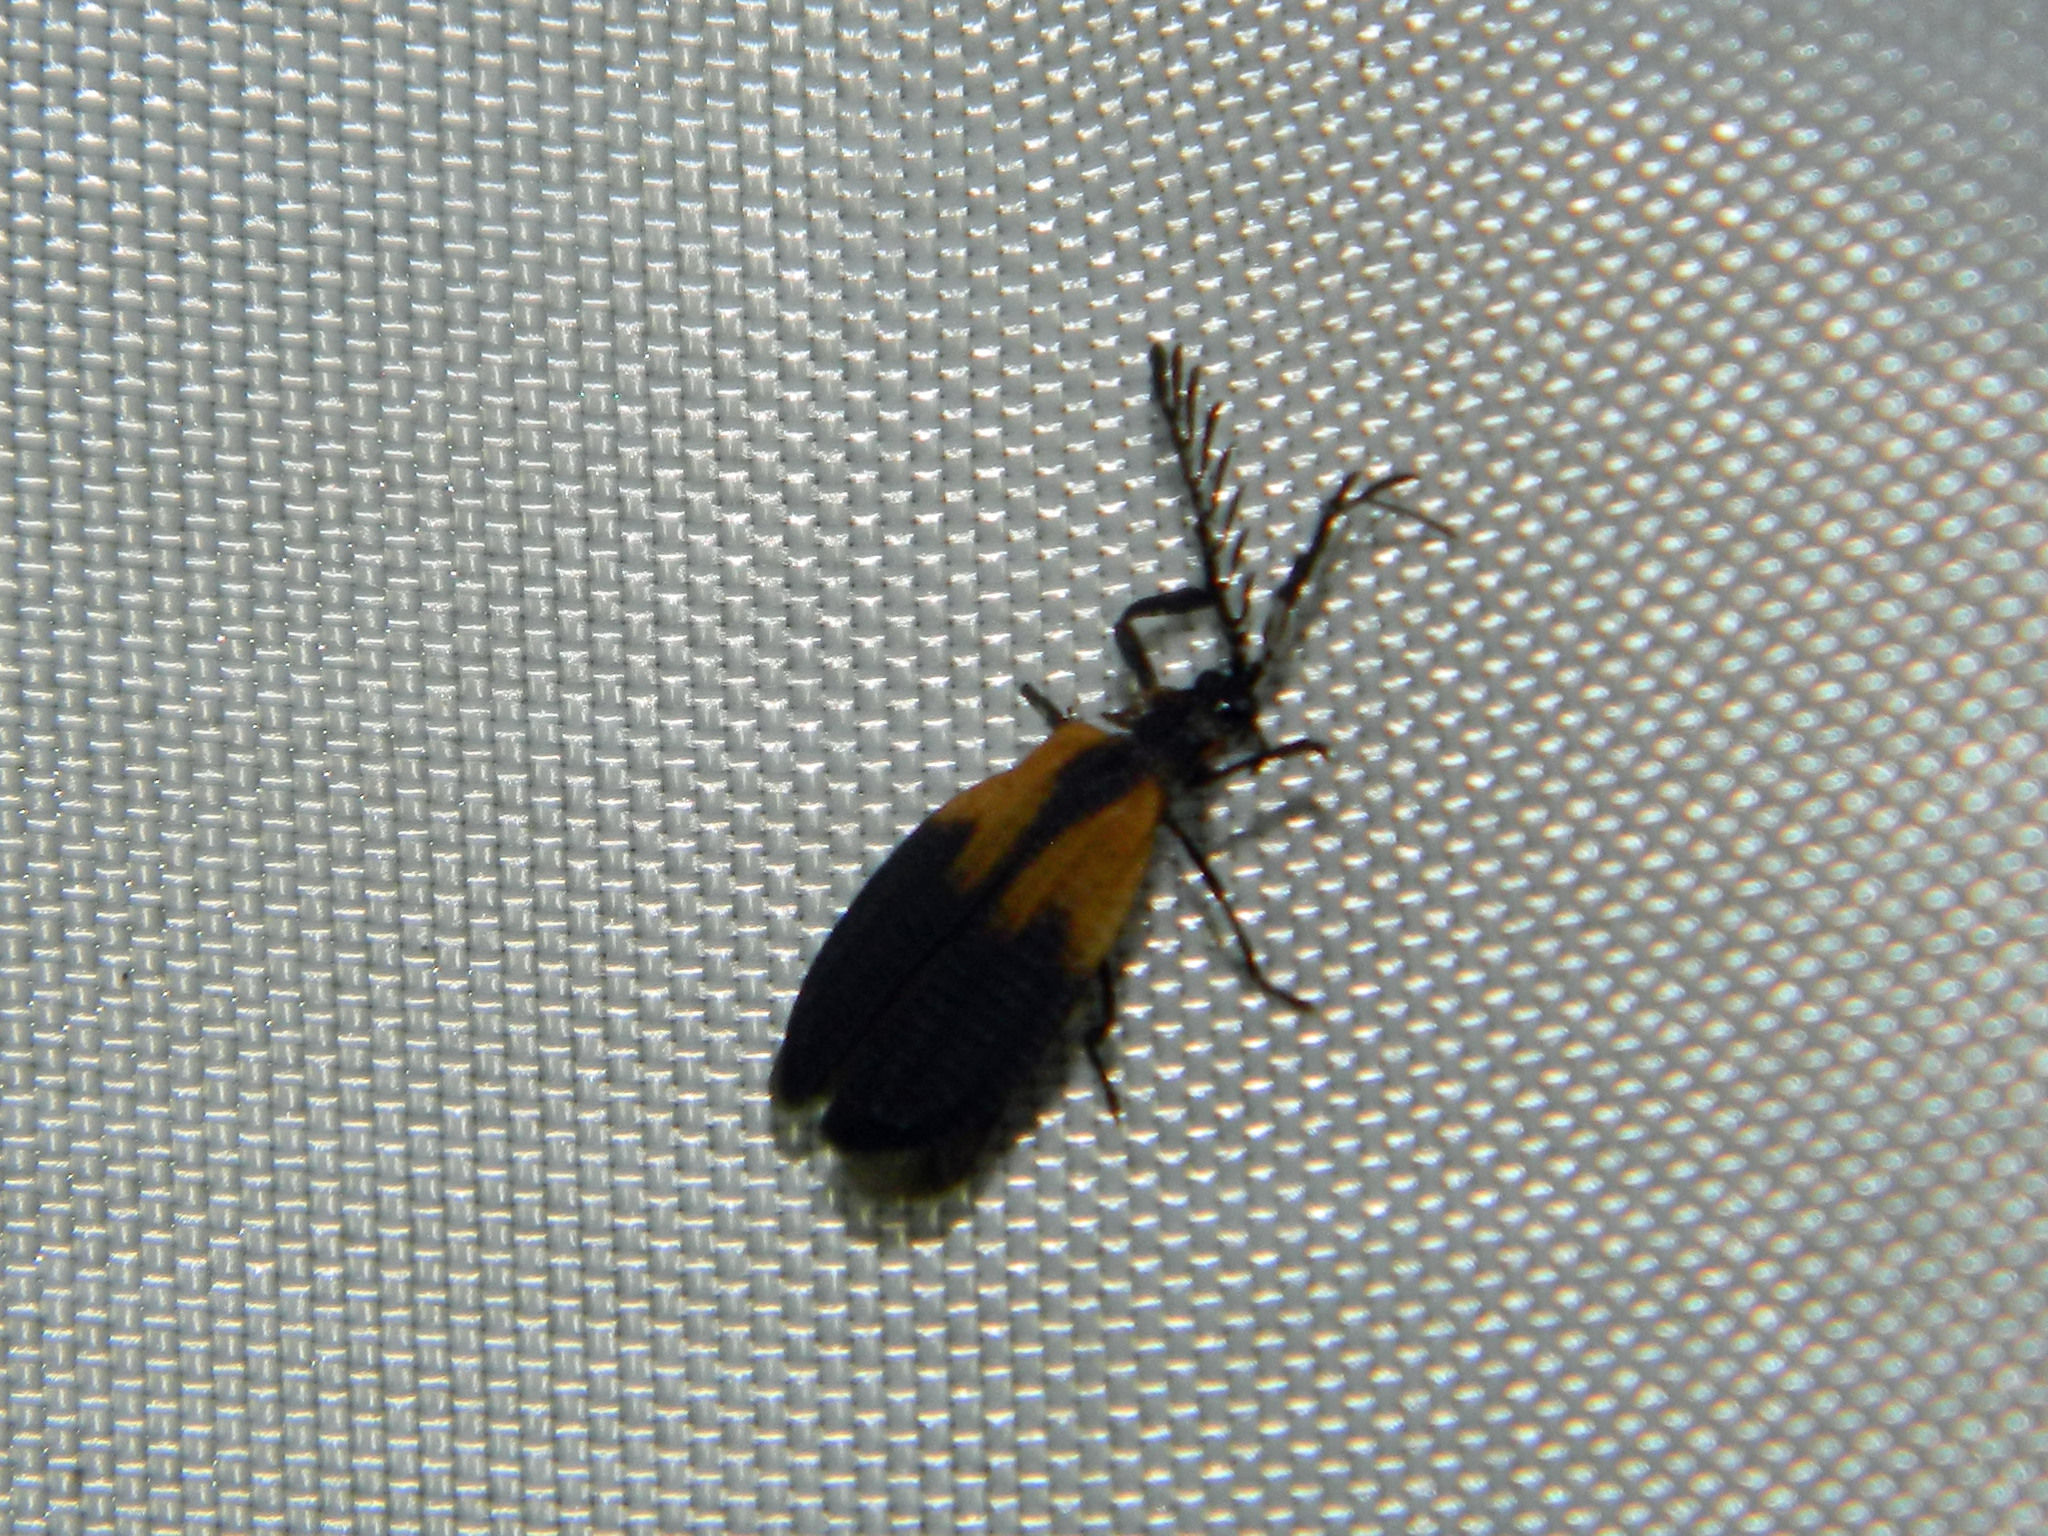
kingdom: Animalia
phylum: Arthropoda
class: Insecta
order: Coleoptera
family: Lycidae
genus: Caenia
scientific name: Caenia dimidiata
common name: Terminal net-winged beetle
